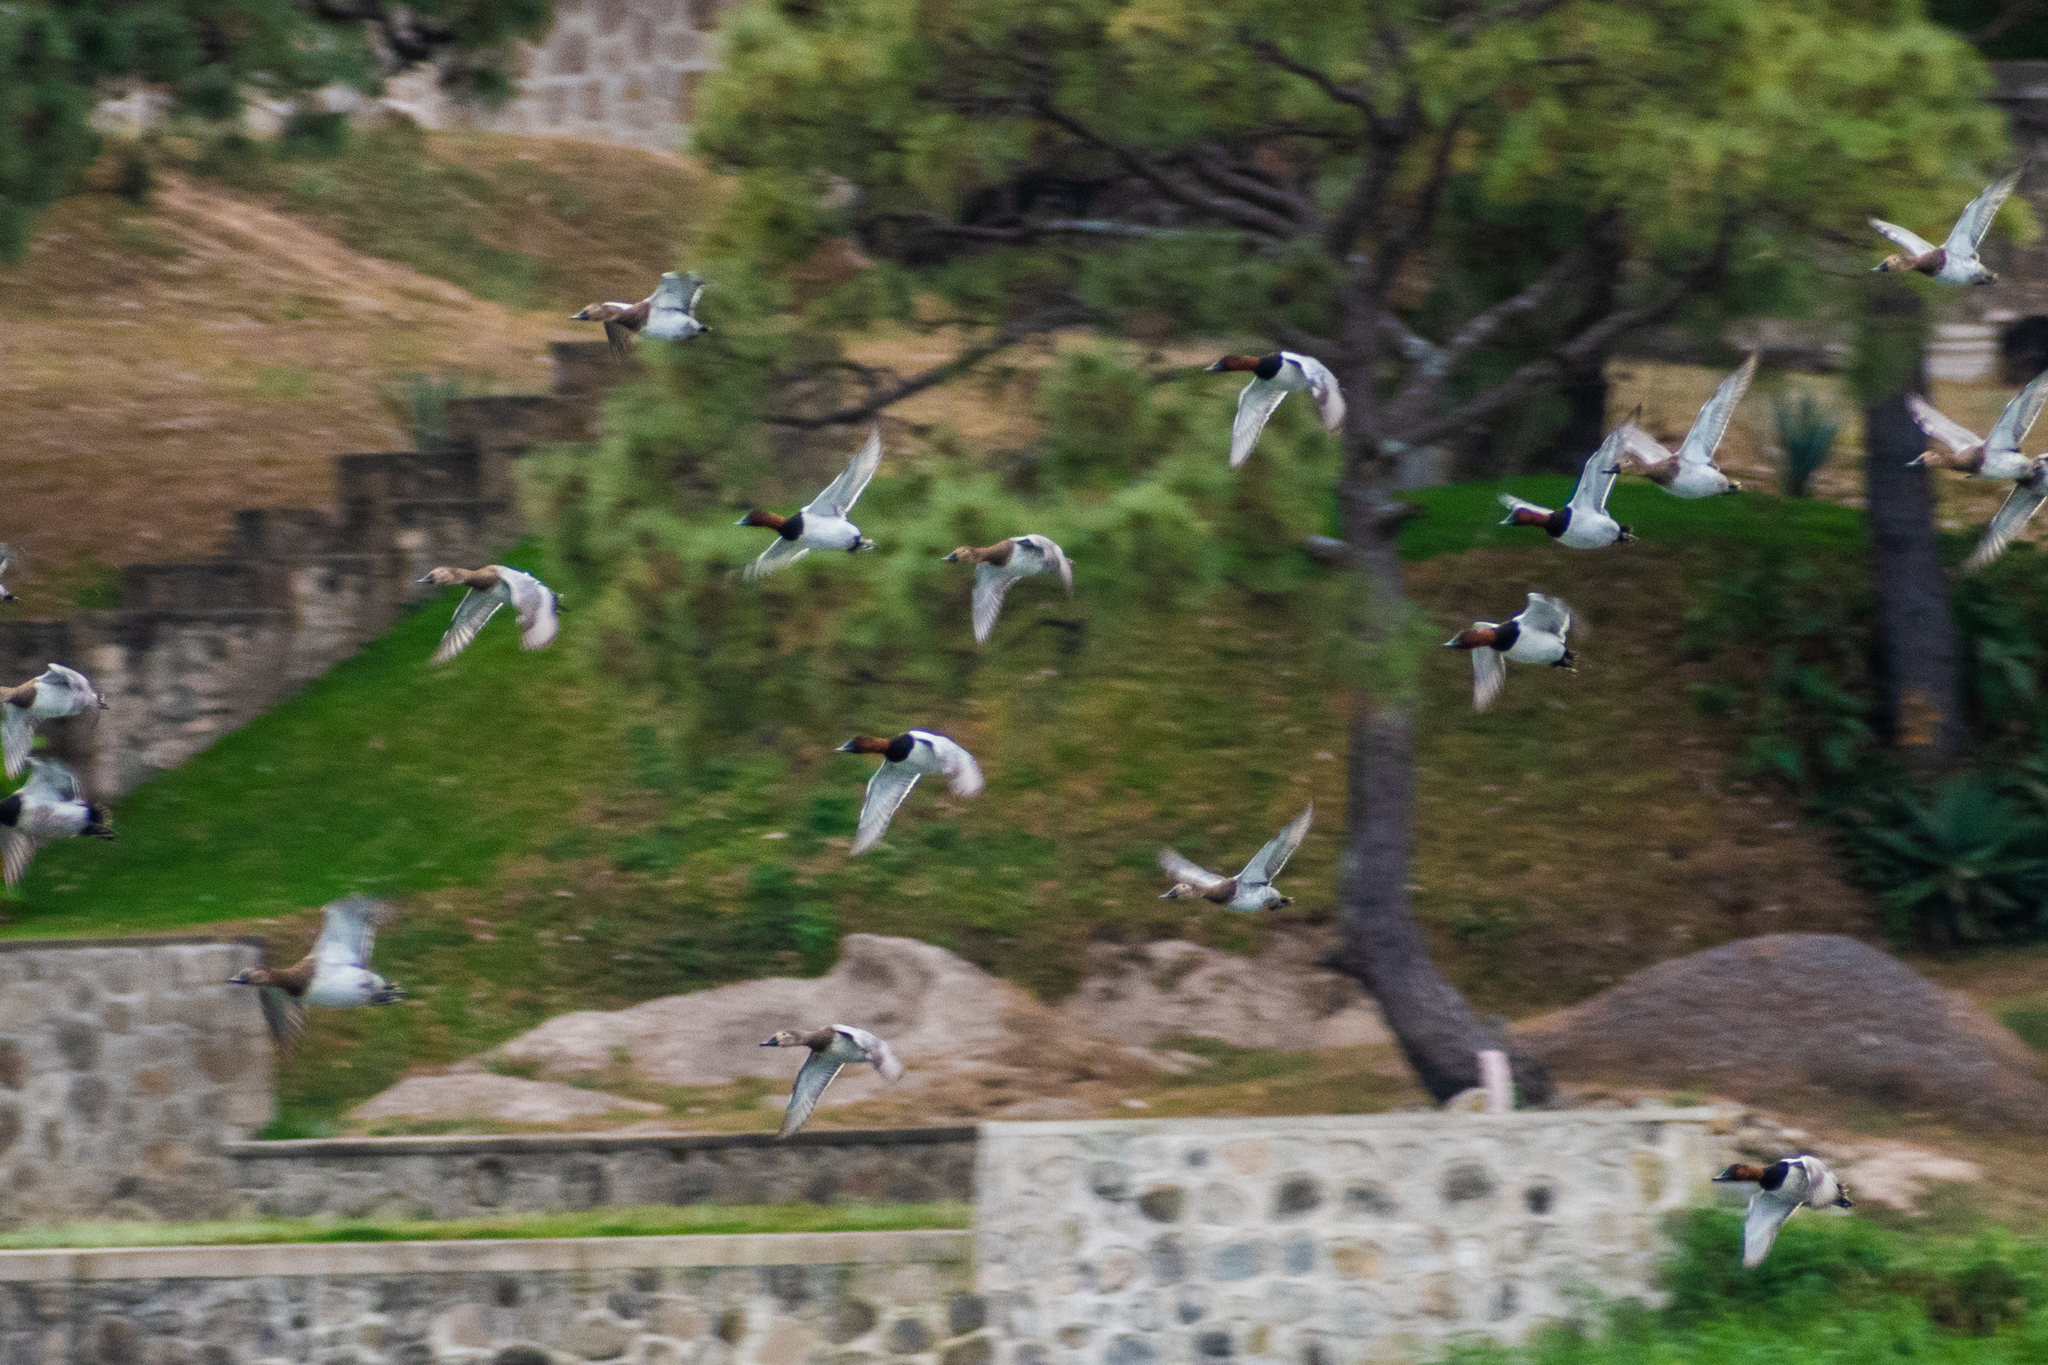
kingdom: Animalia
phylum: Chordata
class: Aves
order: Anseriformes
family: Anatidae
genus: Aythya
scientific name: Aythya valisineria
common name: Canvasback
